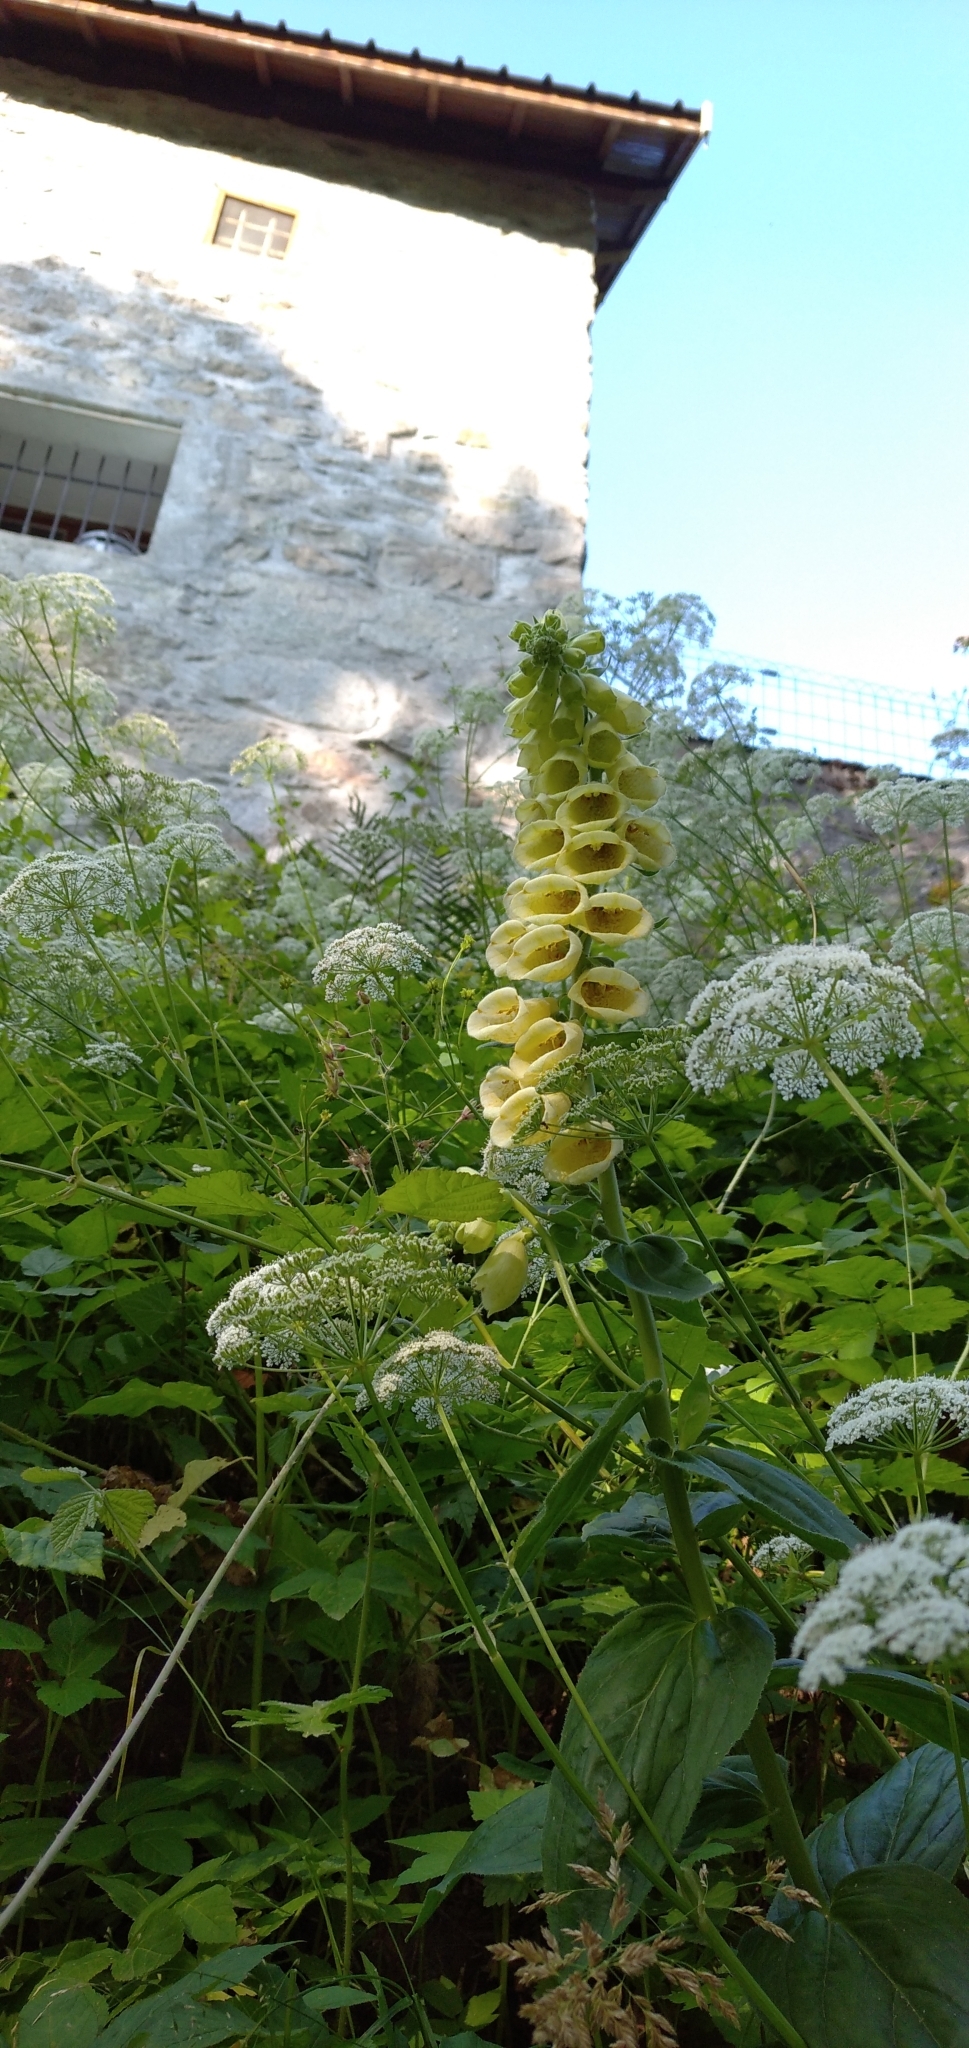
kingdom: Plantae
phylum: Tracheophyta
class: Magnoliopsida
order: Lamiales
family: Plantaginaceae
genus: Digitalis
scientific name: Digitalis grandiflora
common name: Yellow foxglove
